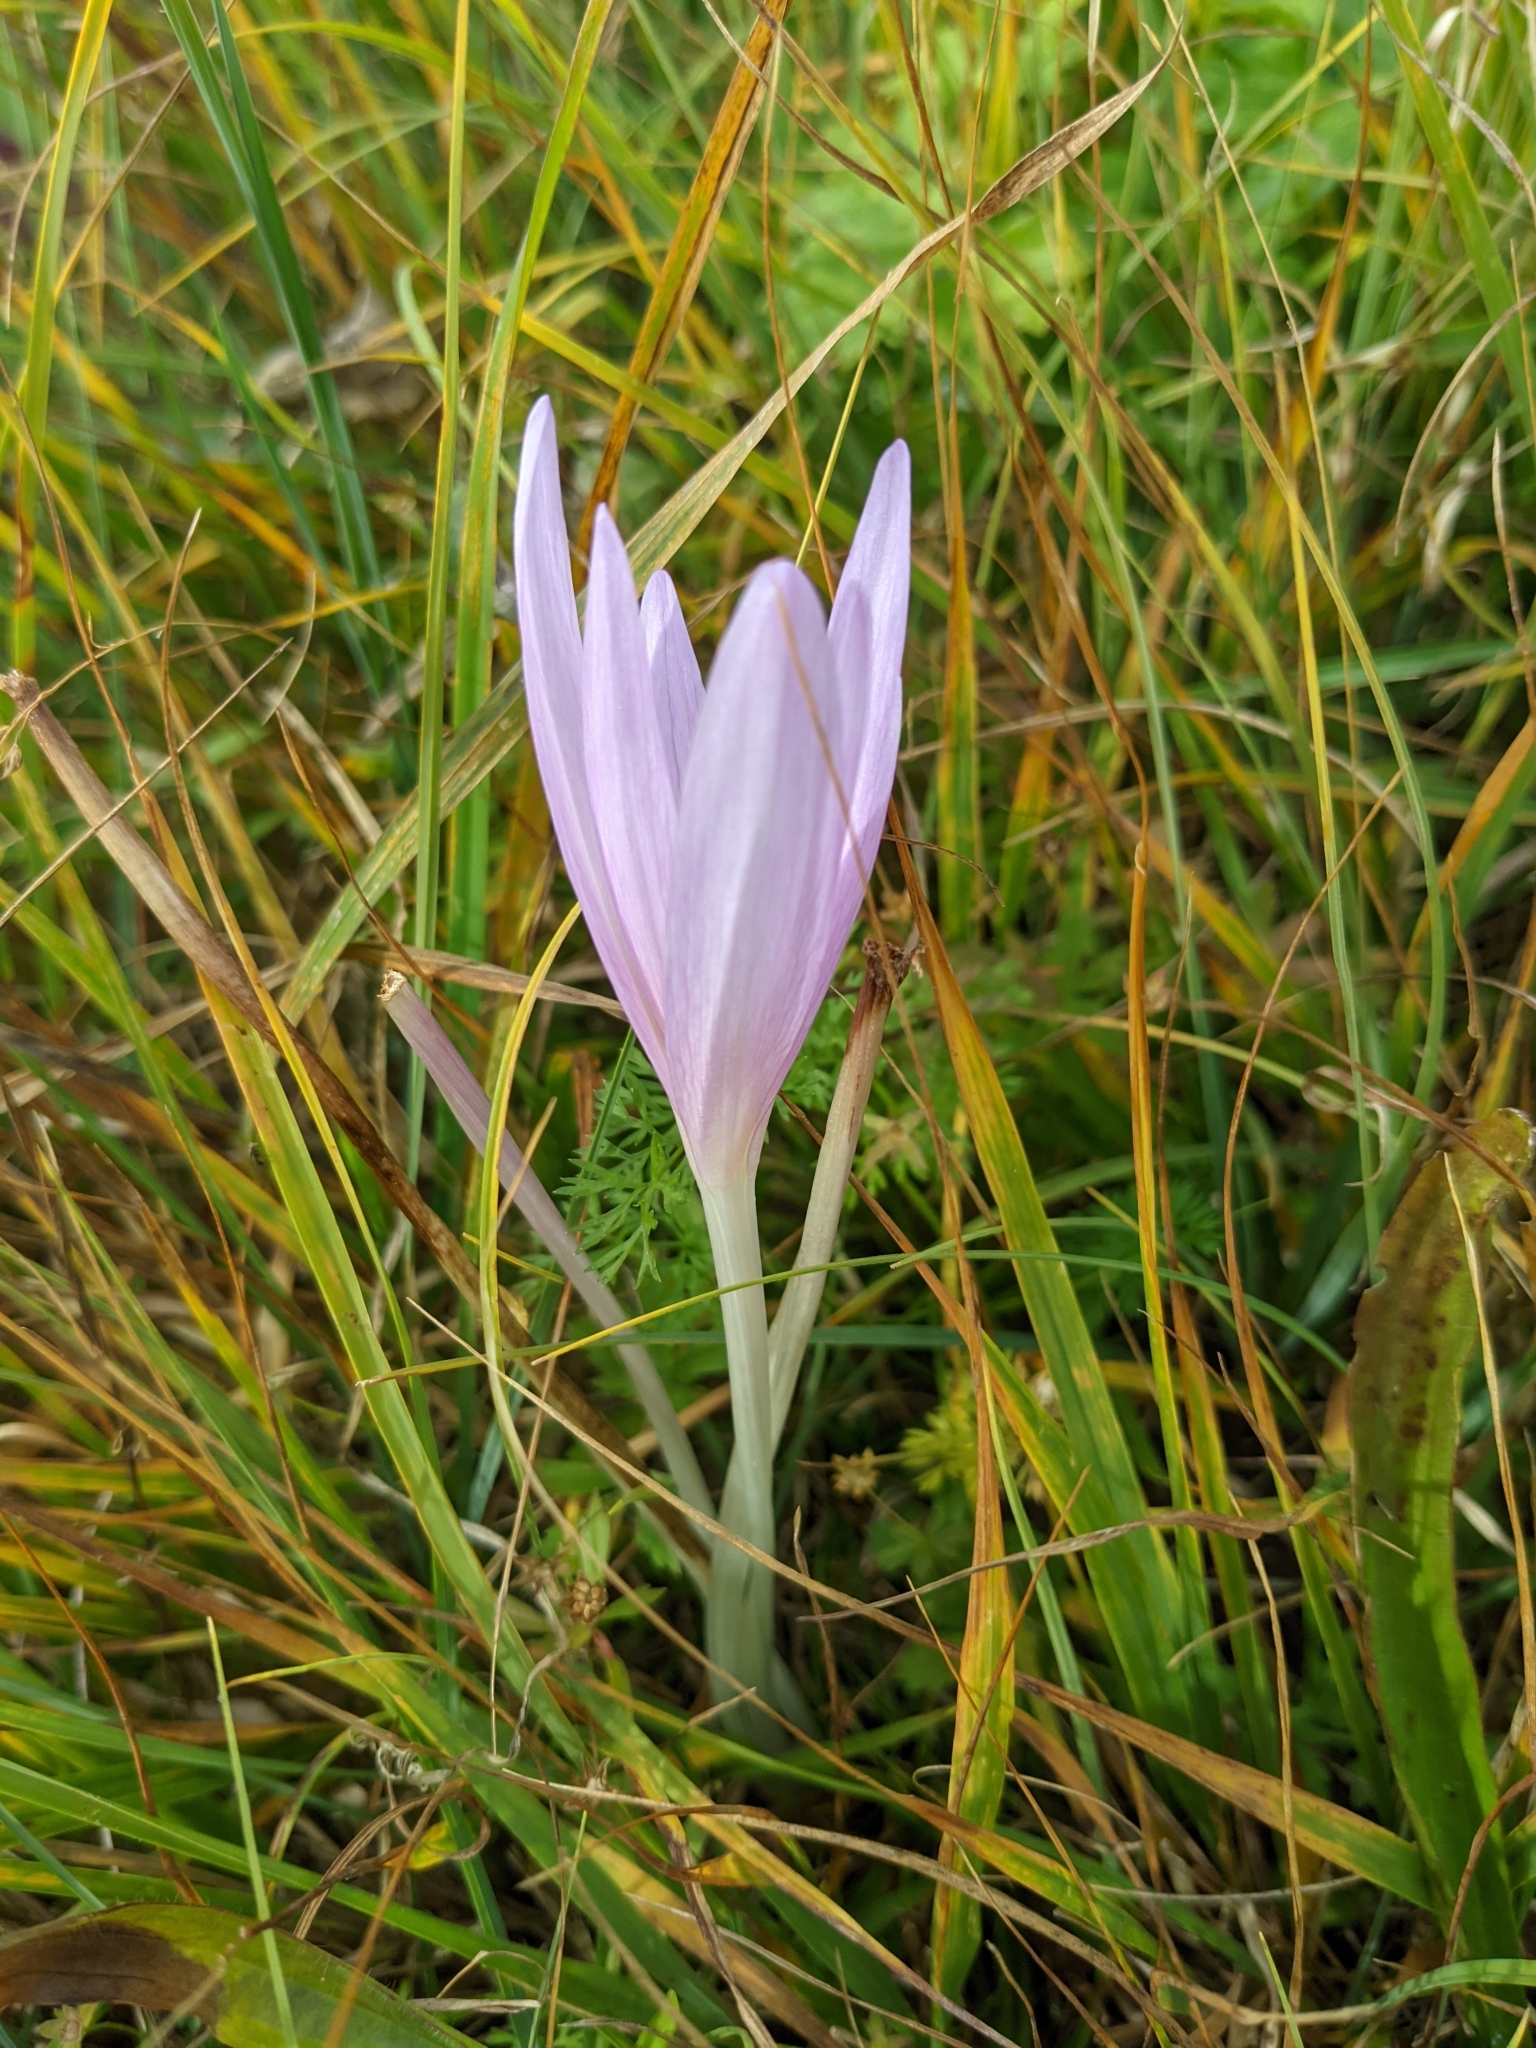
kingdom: Plantae
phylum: Tracheophyta
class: Liliopsida
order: Liliales
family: Colchicaceae
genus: Colchicum
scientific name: Colchicum autumnale
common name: Autumn crocus
